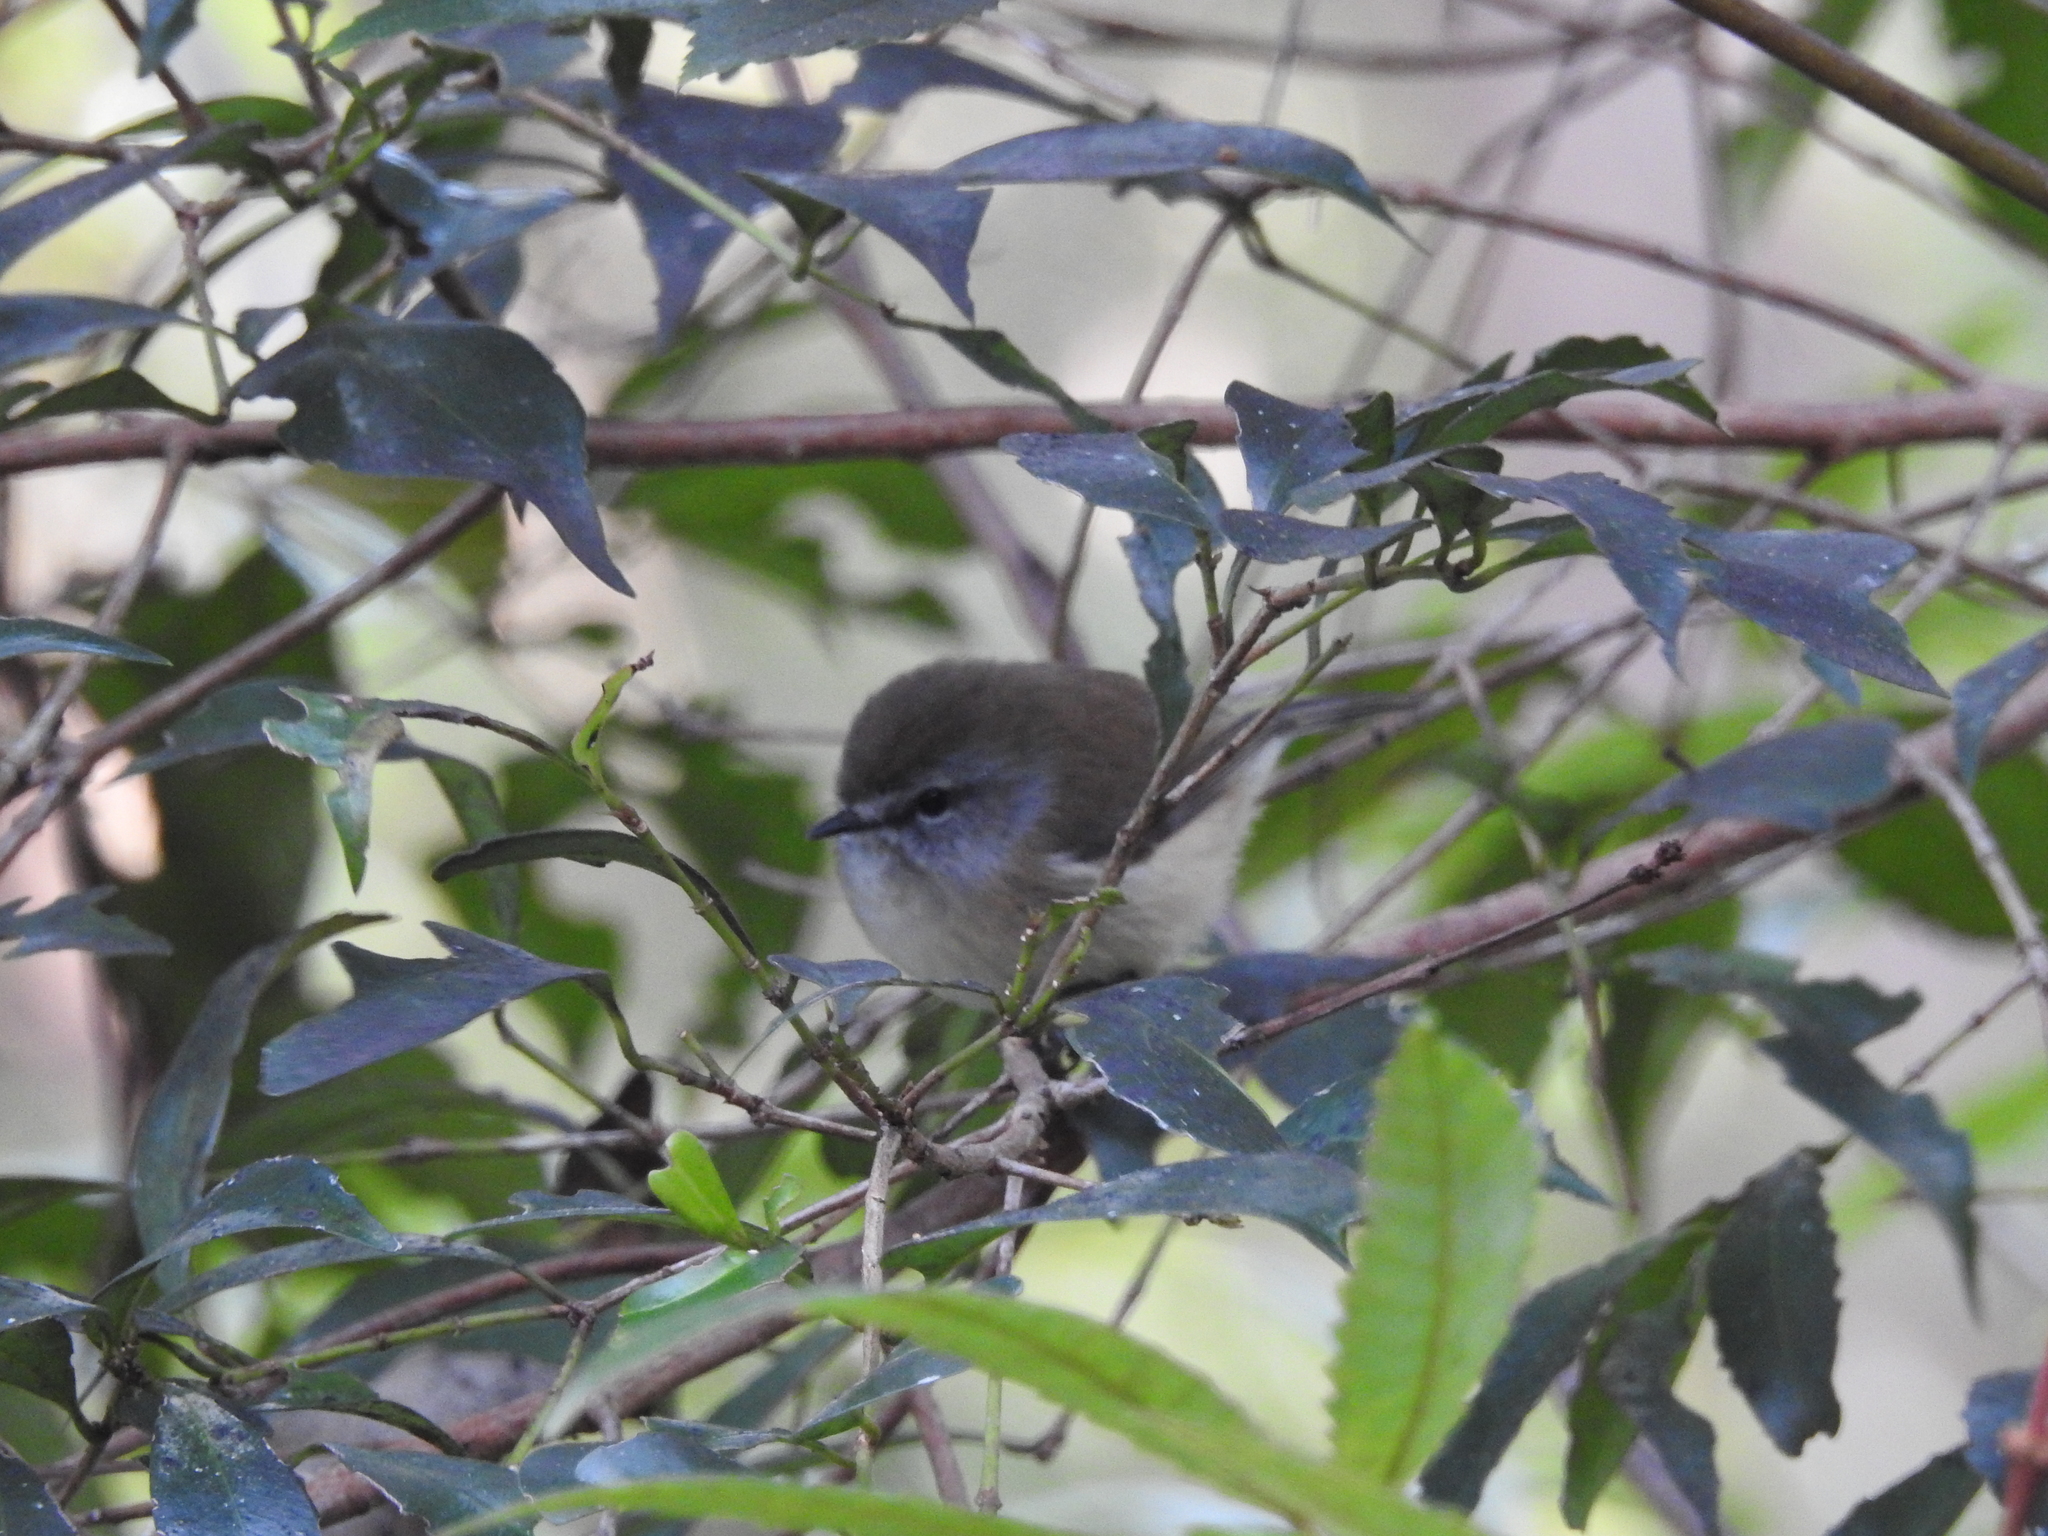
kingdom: Animalia
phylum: Chordata
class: Aves
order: Passeriformes
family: Acanthizidae
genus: Gerygone
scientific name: Gerygone mouki
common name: Brown gerygone
